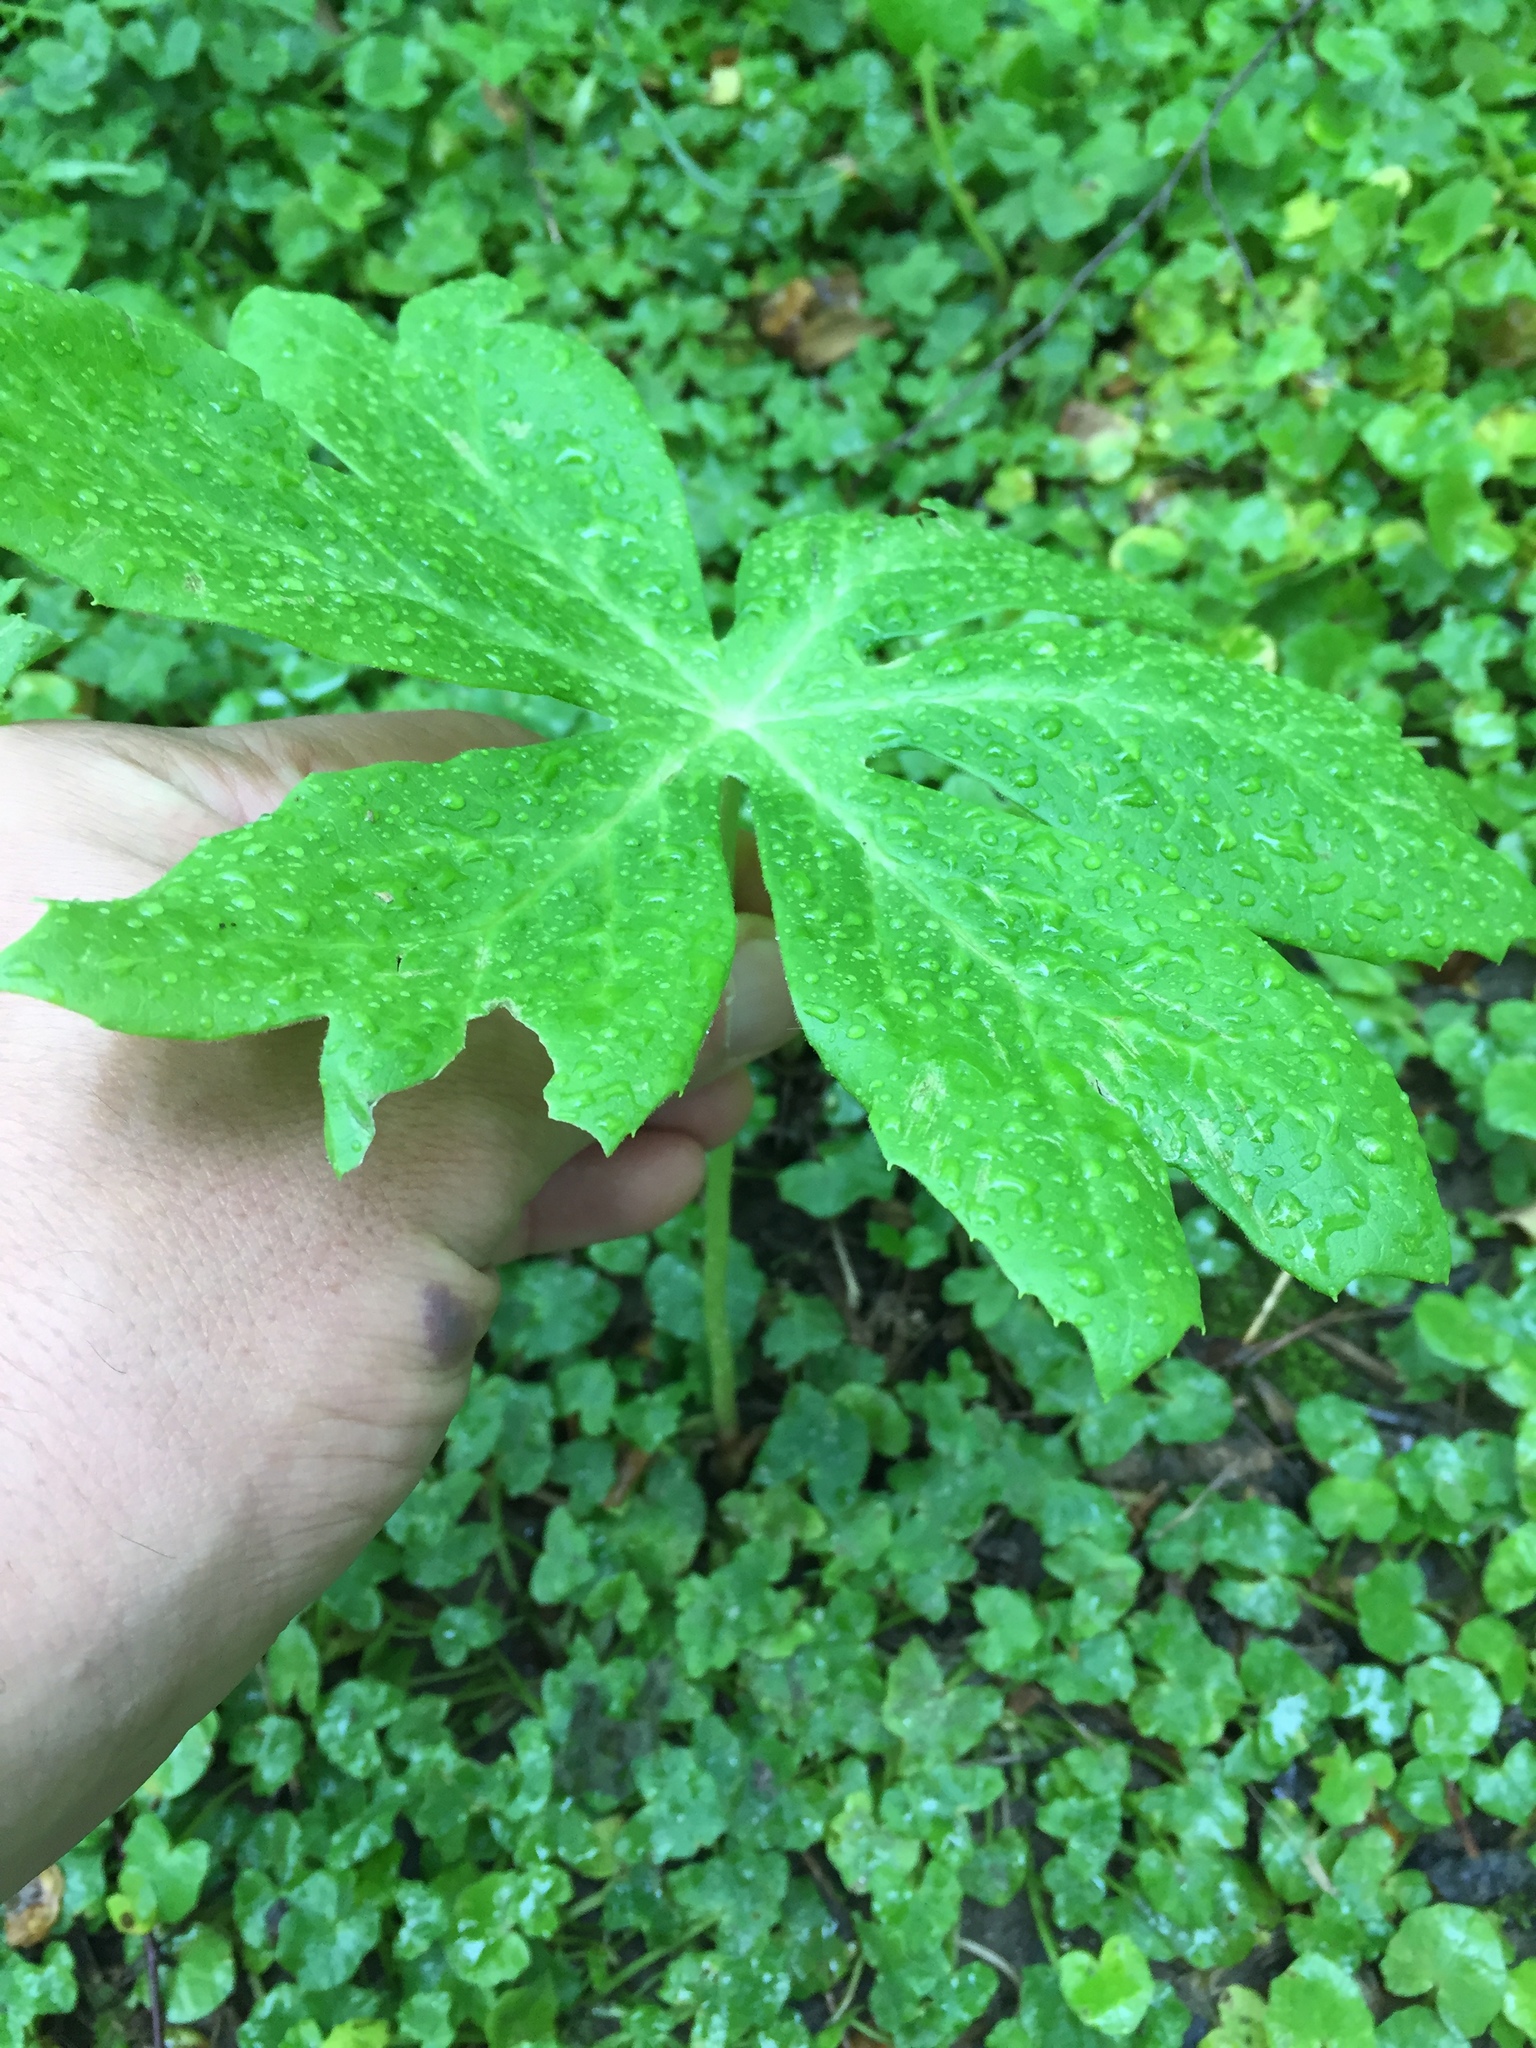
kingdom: Plantae
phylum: Tracheophyta
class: Magnoliopsida
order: Ranunculales
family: Berberidaceae
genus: Podophyllum
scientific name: Podophyllum peltatum
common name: Wild mandrake
